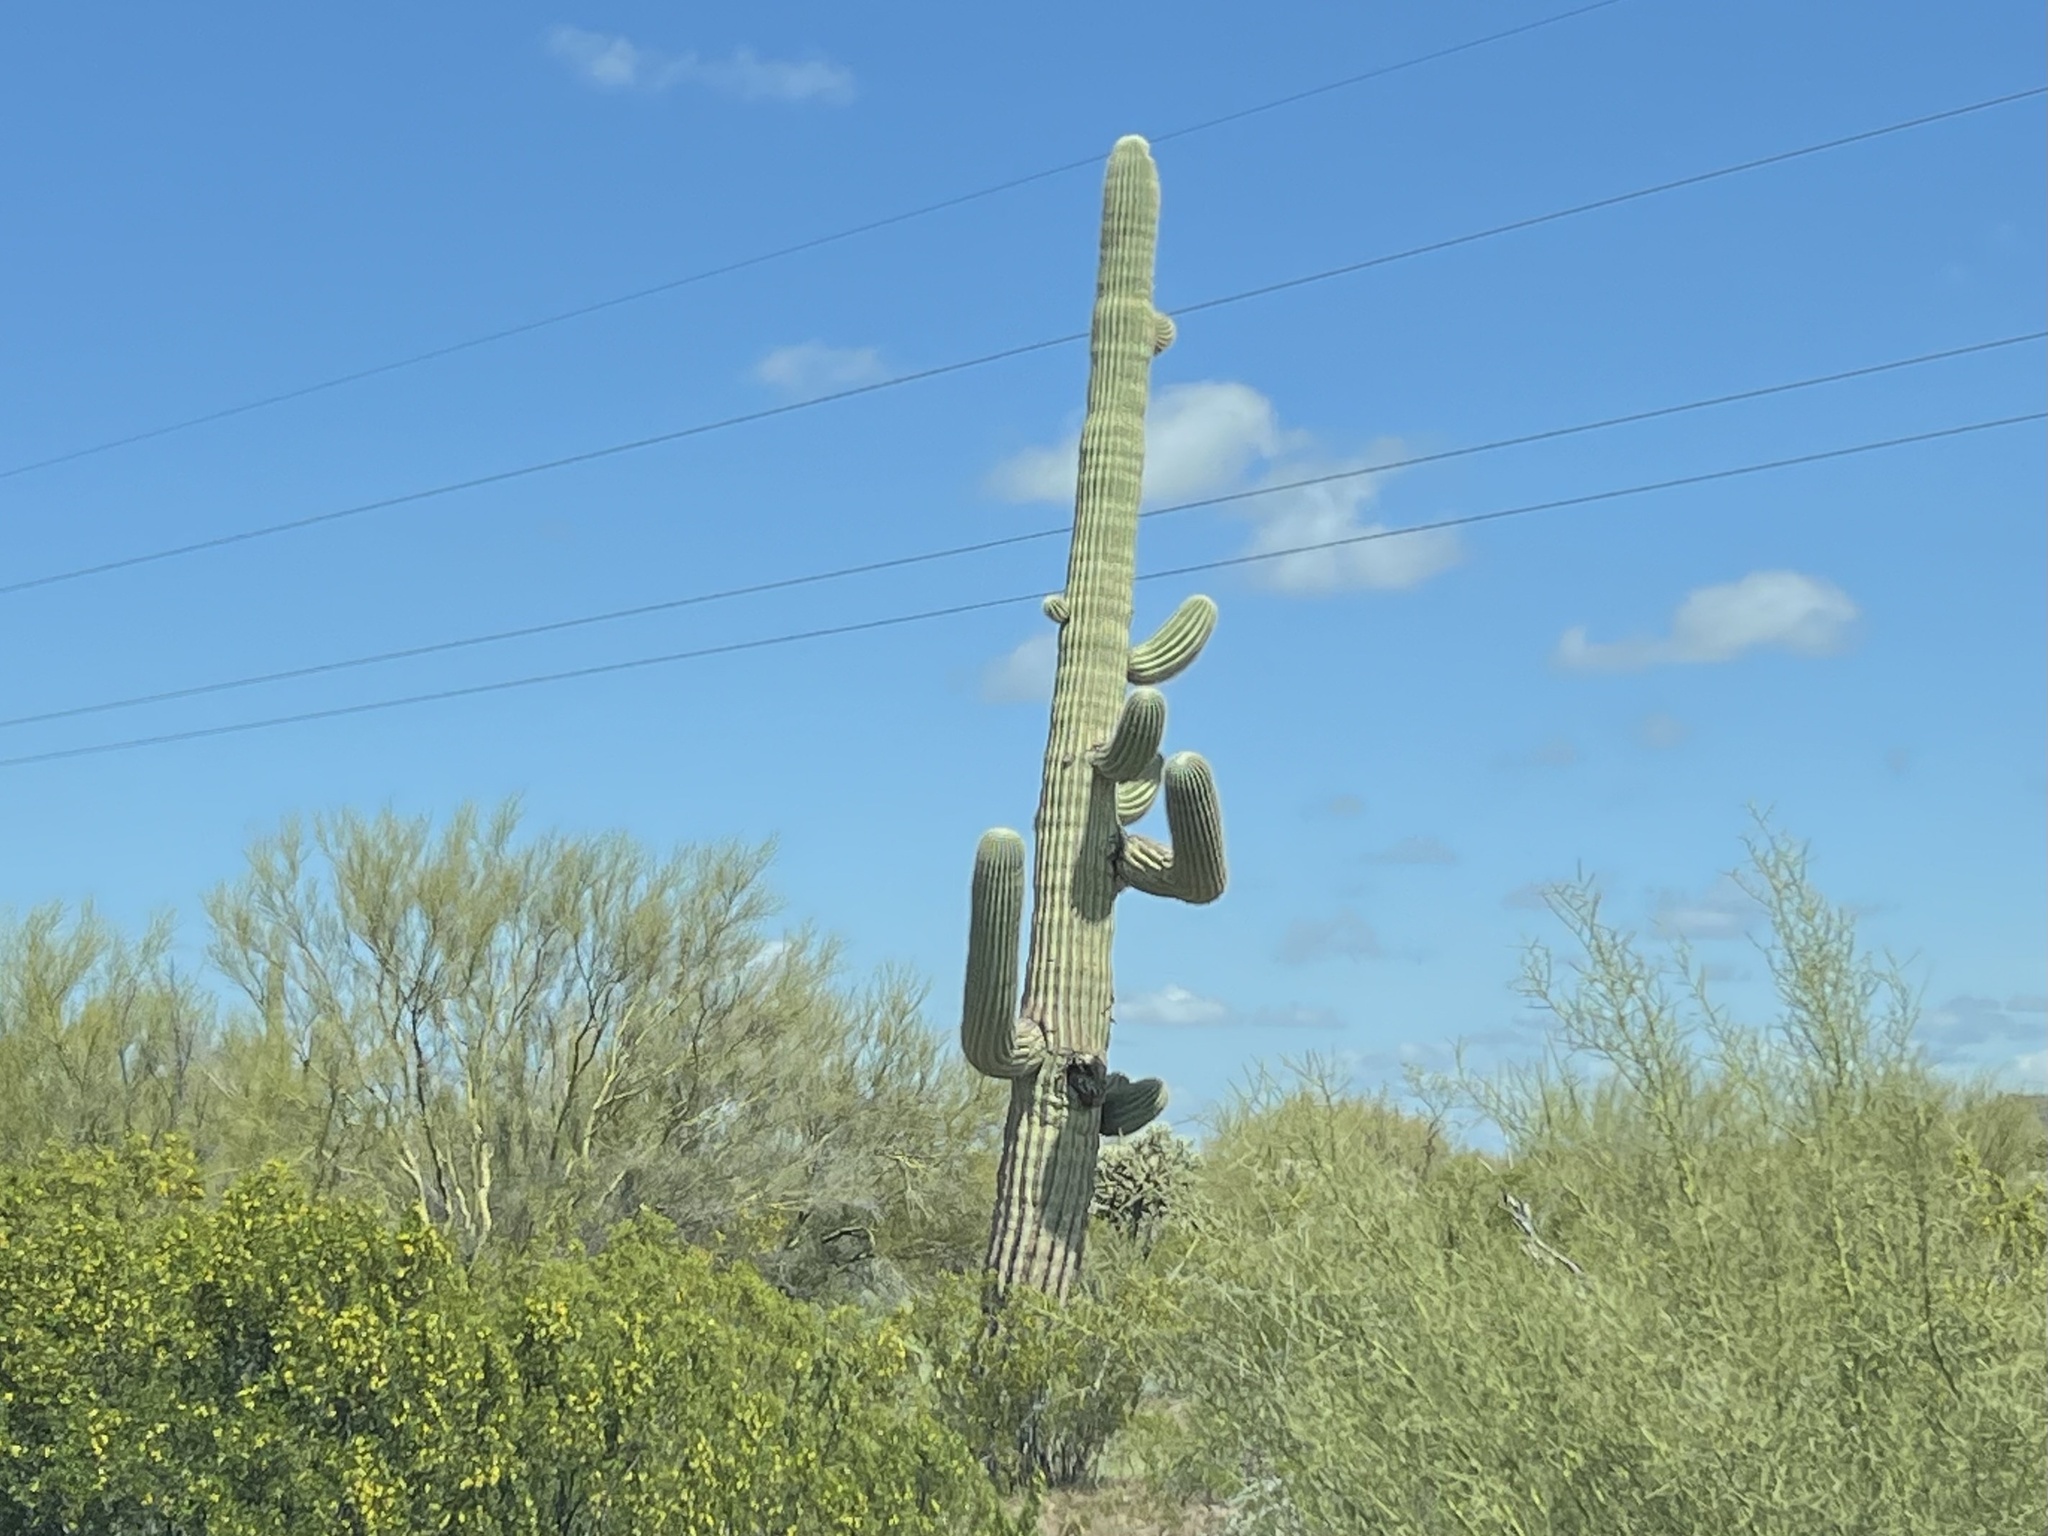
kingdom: Plantae
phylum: Tracheophyta
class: Magnoliopsida
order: Caryophyllales
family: Cactaceae
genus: Carnegiea
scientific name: Carnegiea gigantea
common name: Saguaro
